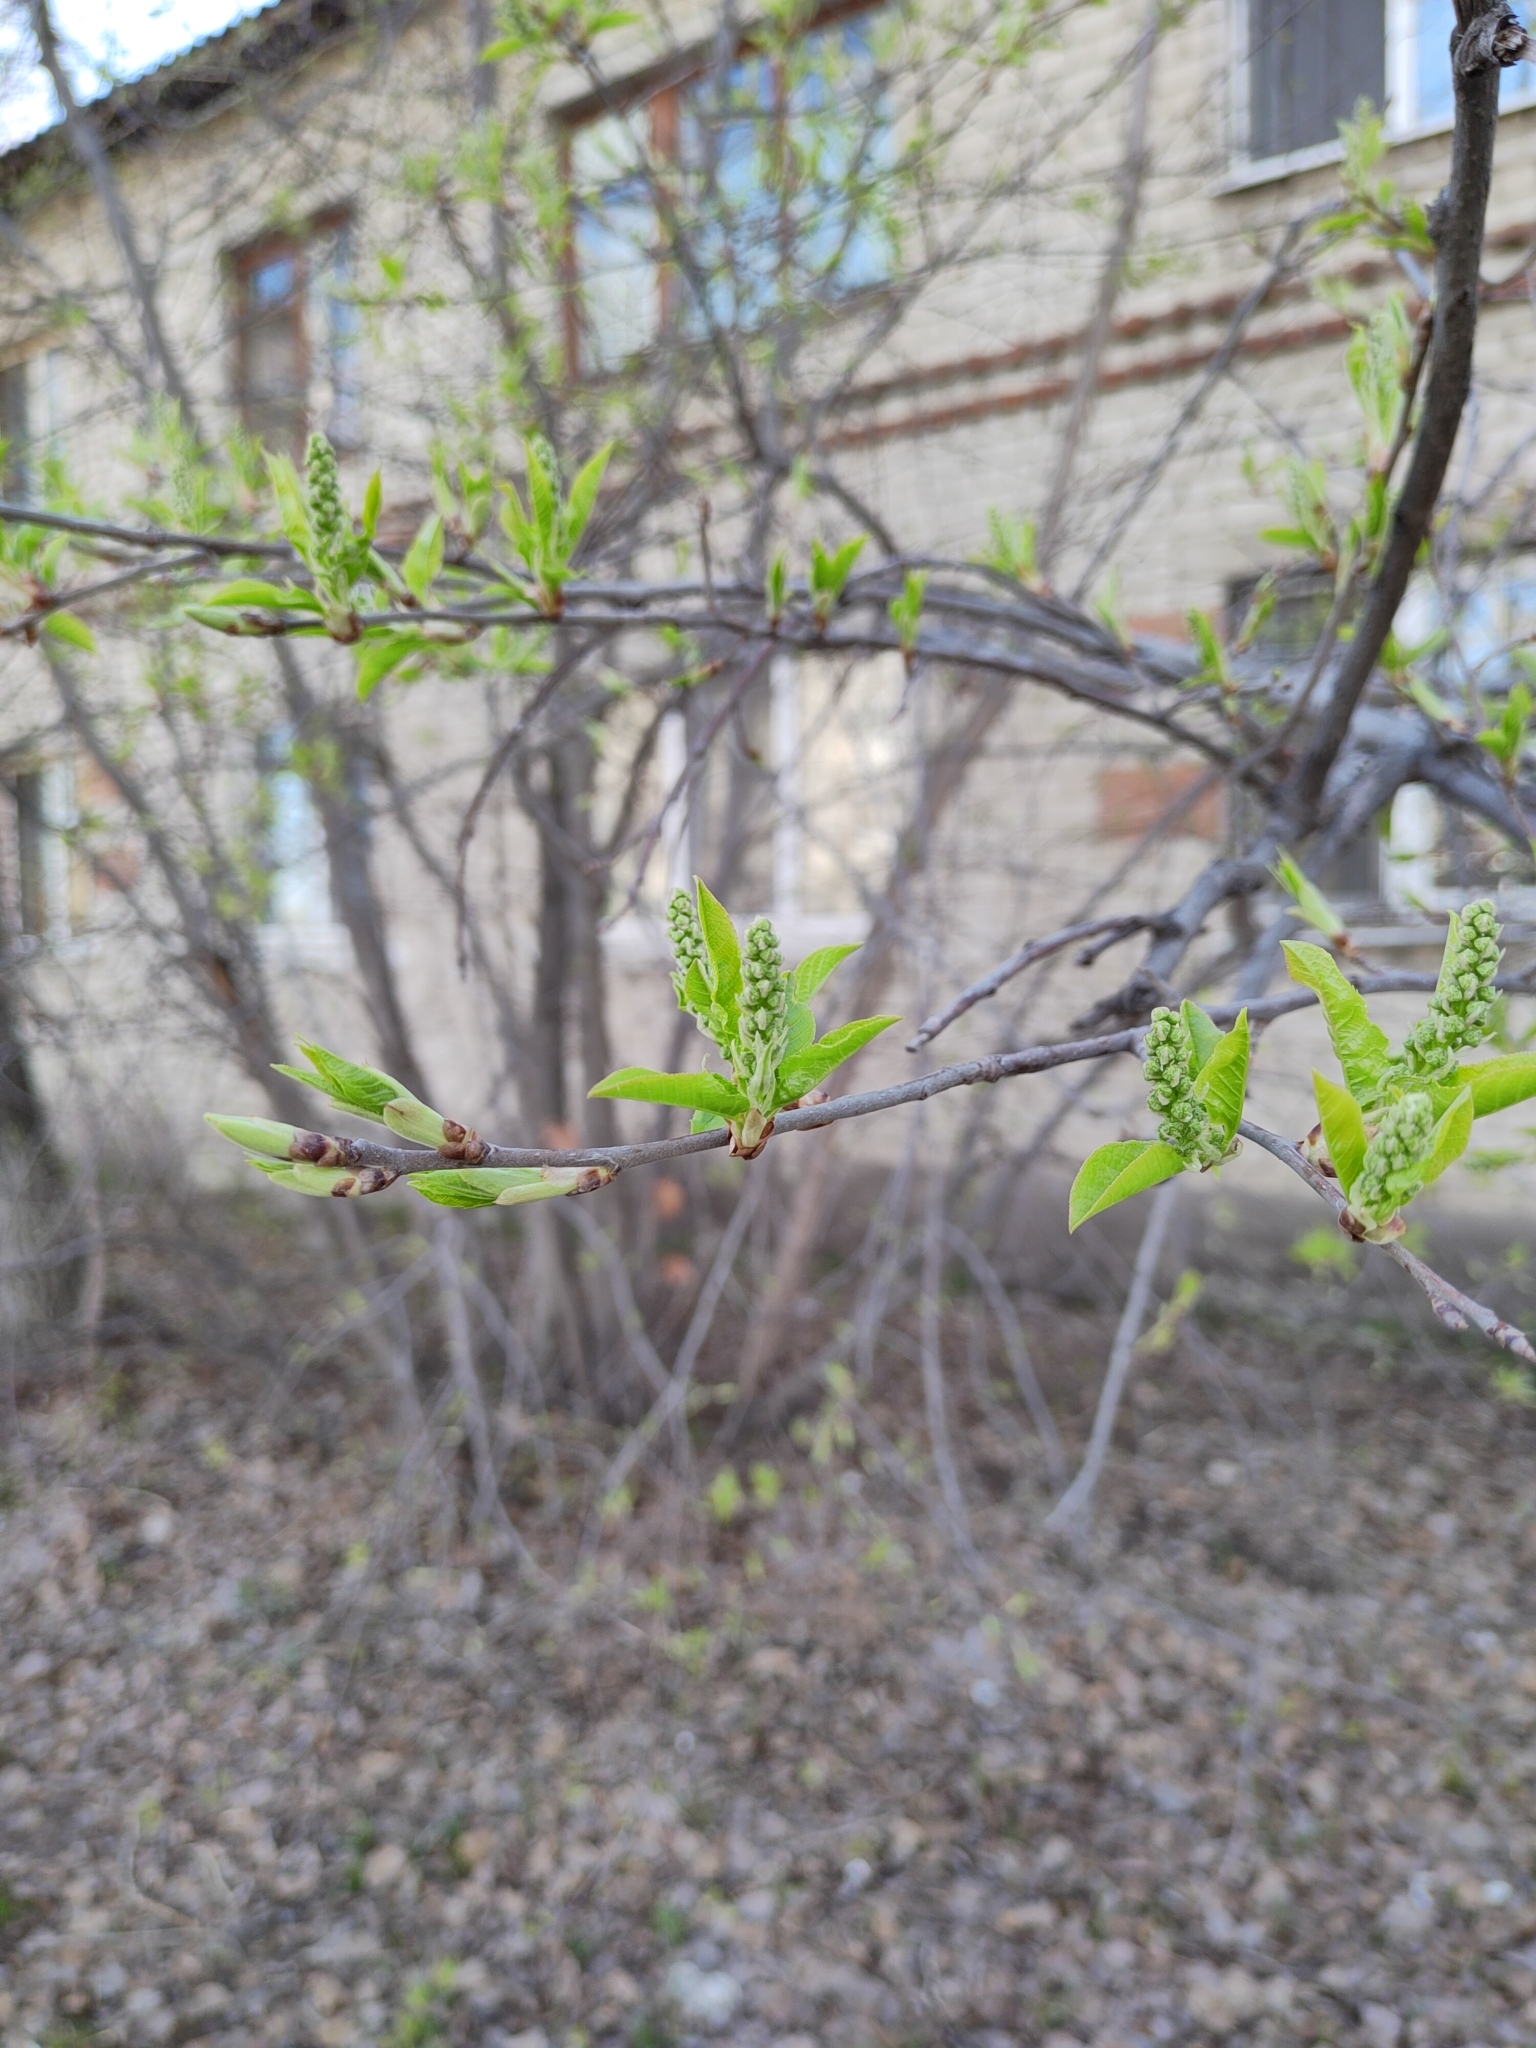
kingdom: Plantae
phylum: Tracheophyta
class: Magnoliopsida
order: Rosales
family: Rosaceae
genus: Prunus
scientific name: Prunus padus
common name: Bird cherry
